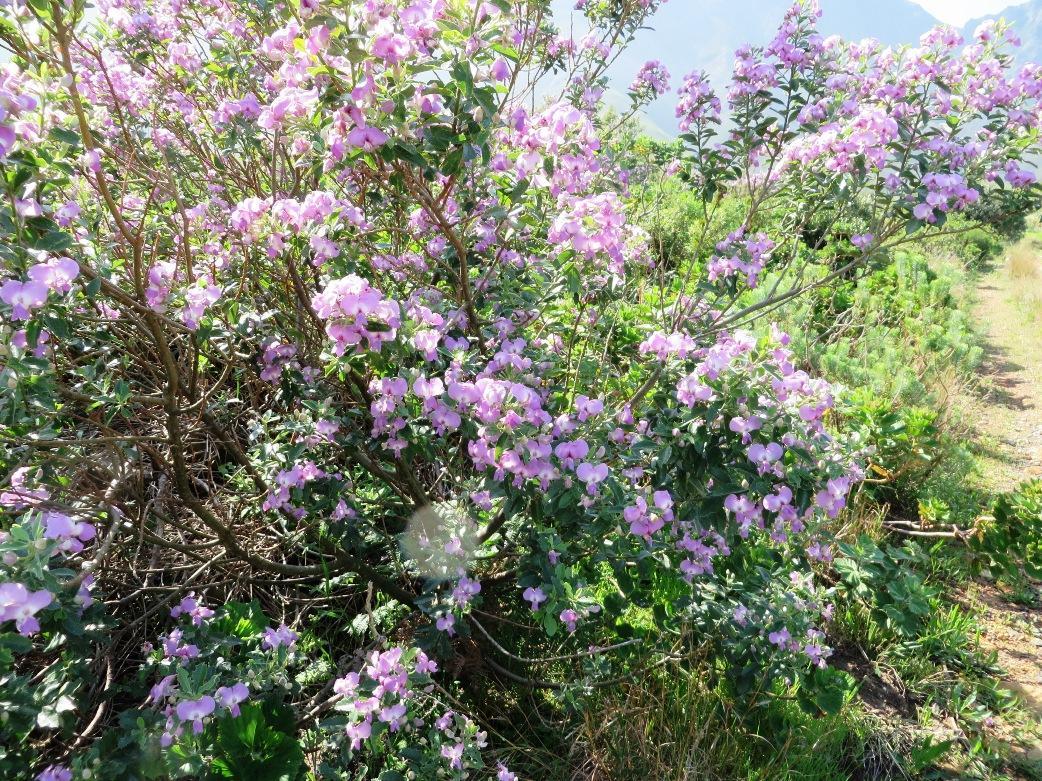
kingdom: Plantae
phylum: Tracheophyta
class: Magnoliopsida
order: Fabales
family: Fabaceae
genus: Podalyria
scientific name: Podalyria calyptrata
